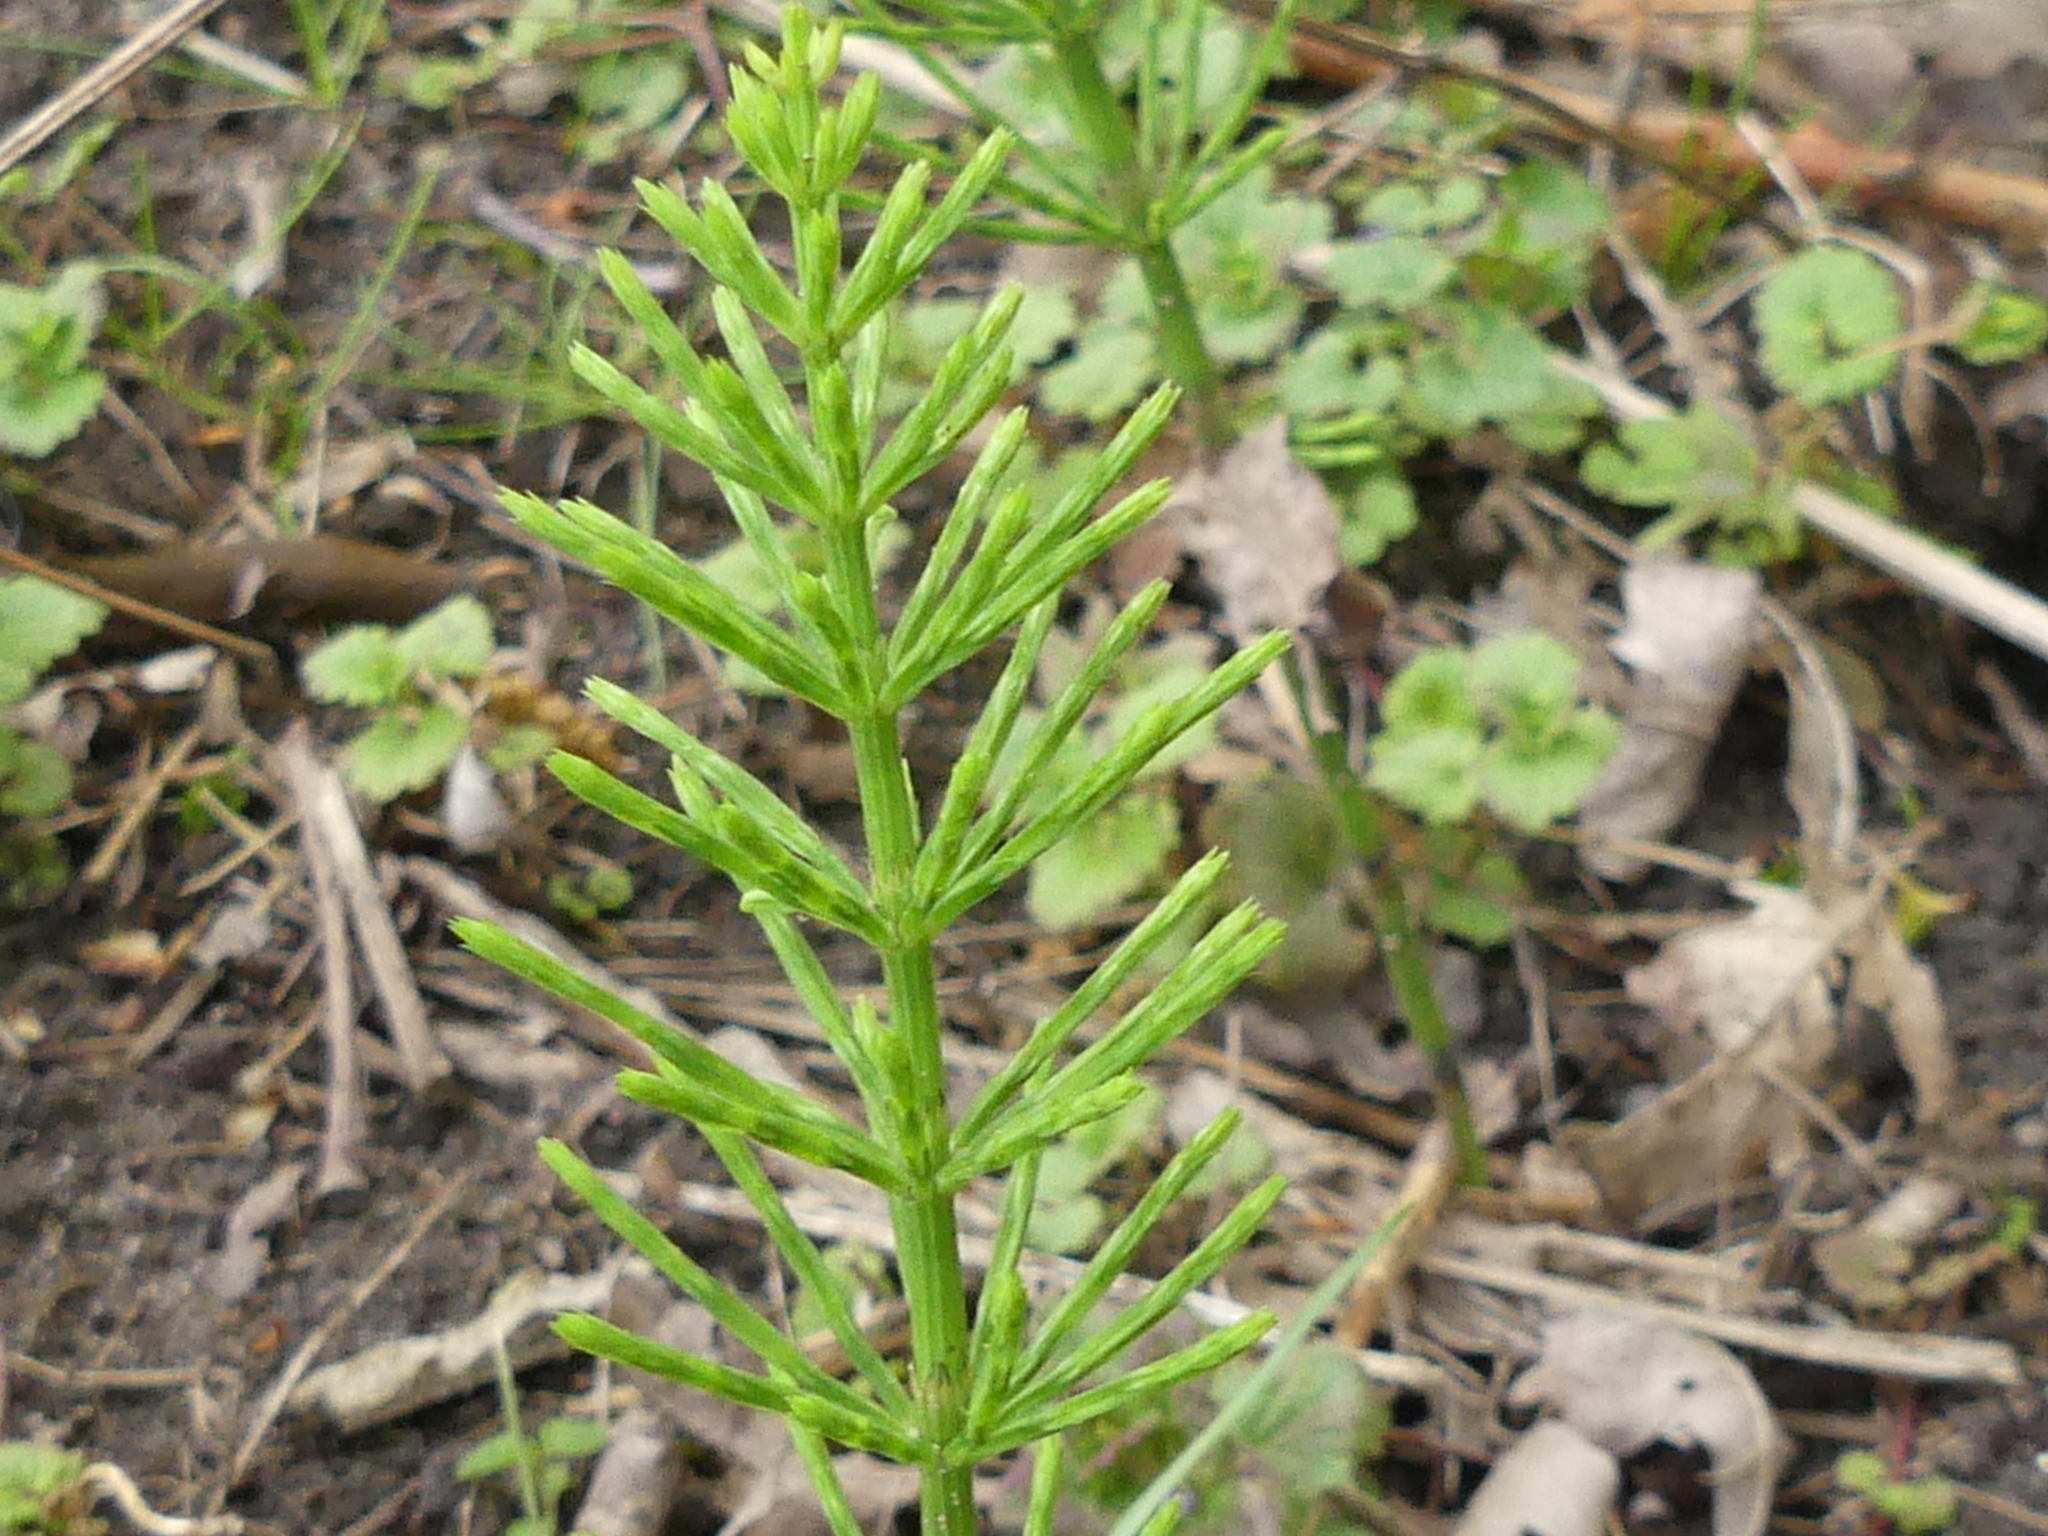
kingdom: Plantae
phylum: Tracheophyta
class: Polypodiopsida
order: Equisetales
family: Equisetaceae
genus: Equisetum
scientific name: Equisetum arvense
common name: Field horsetail
